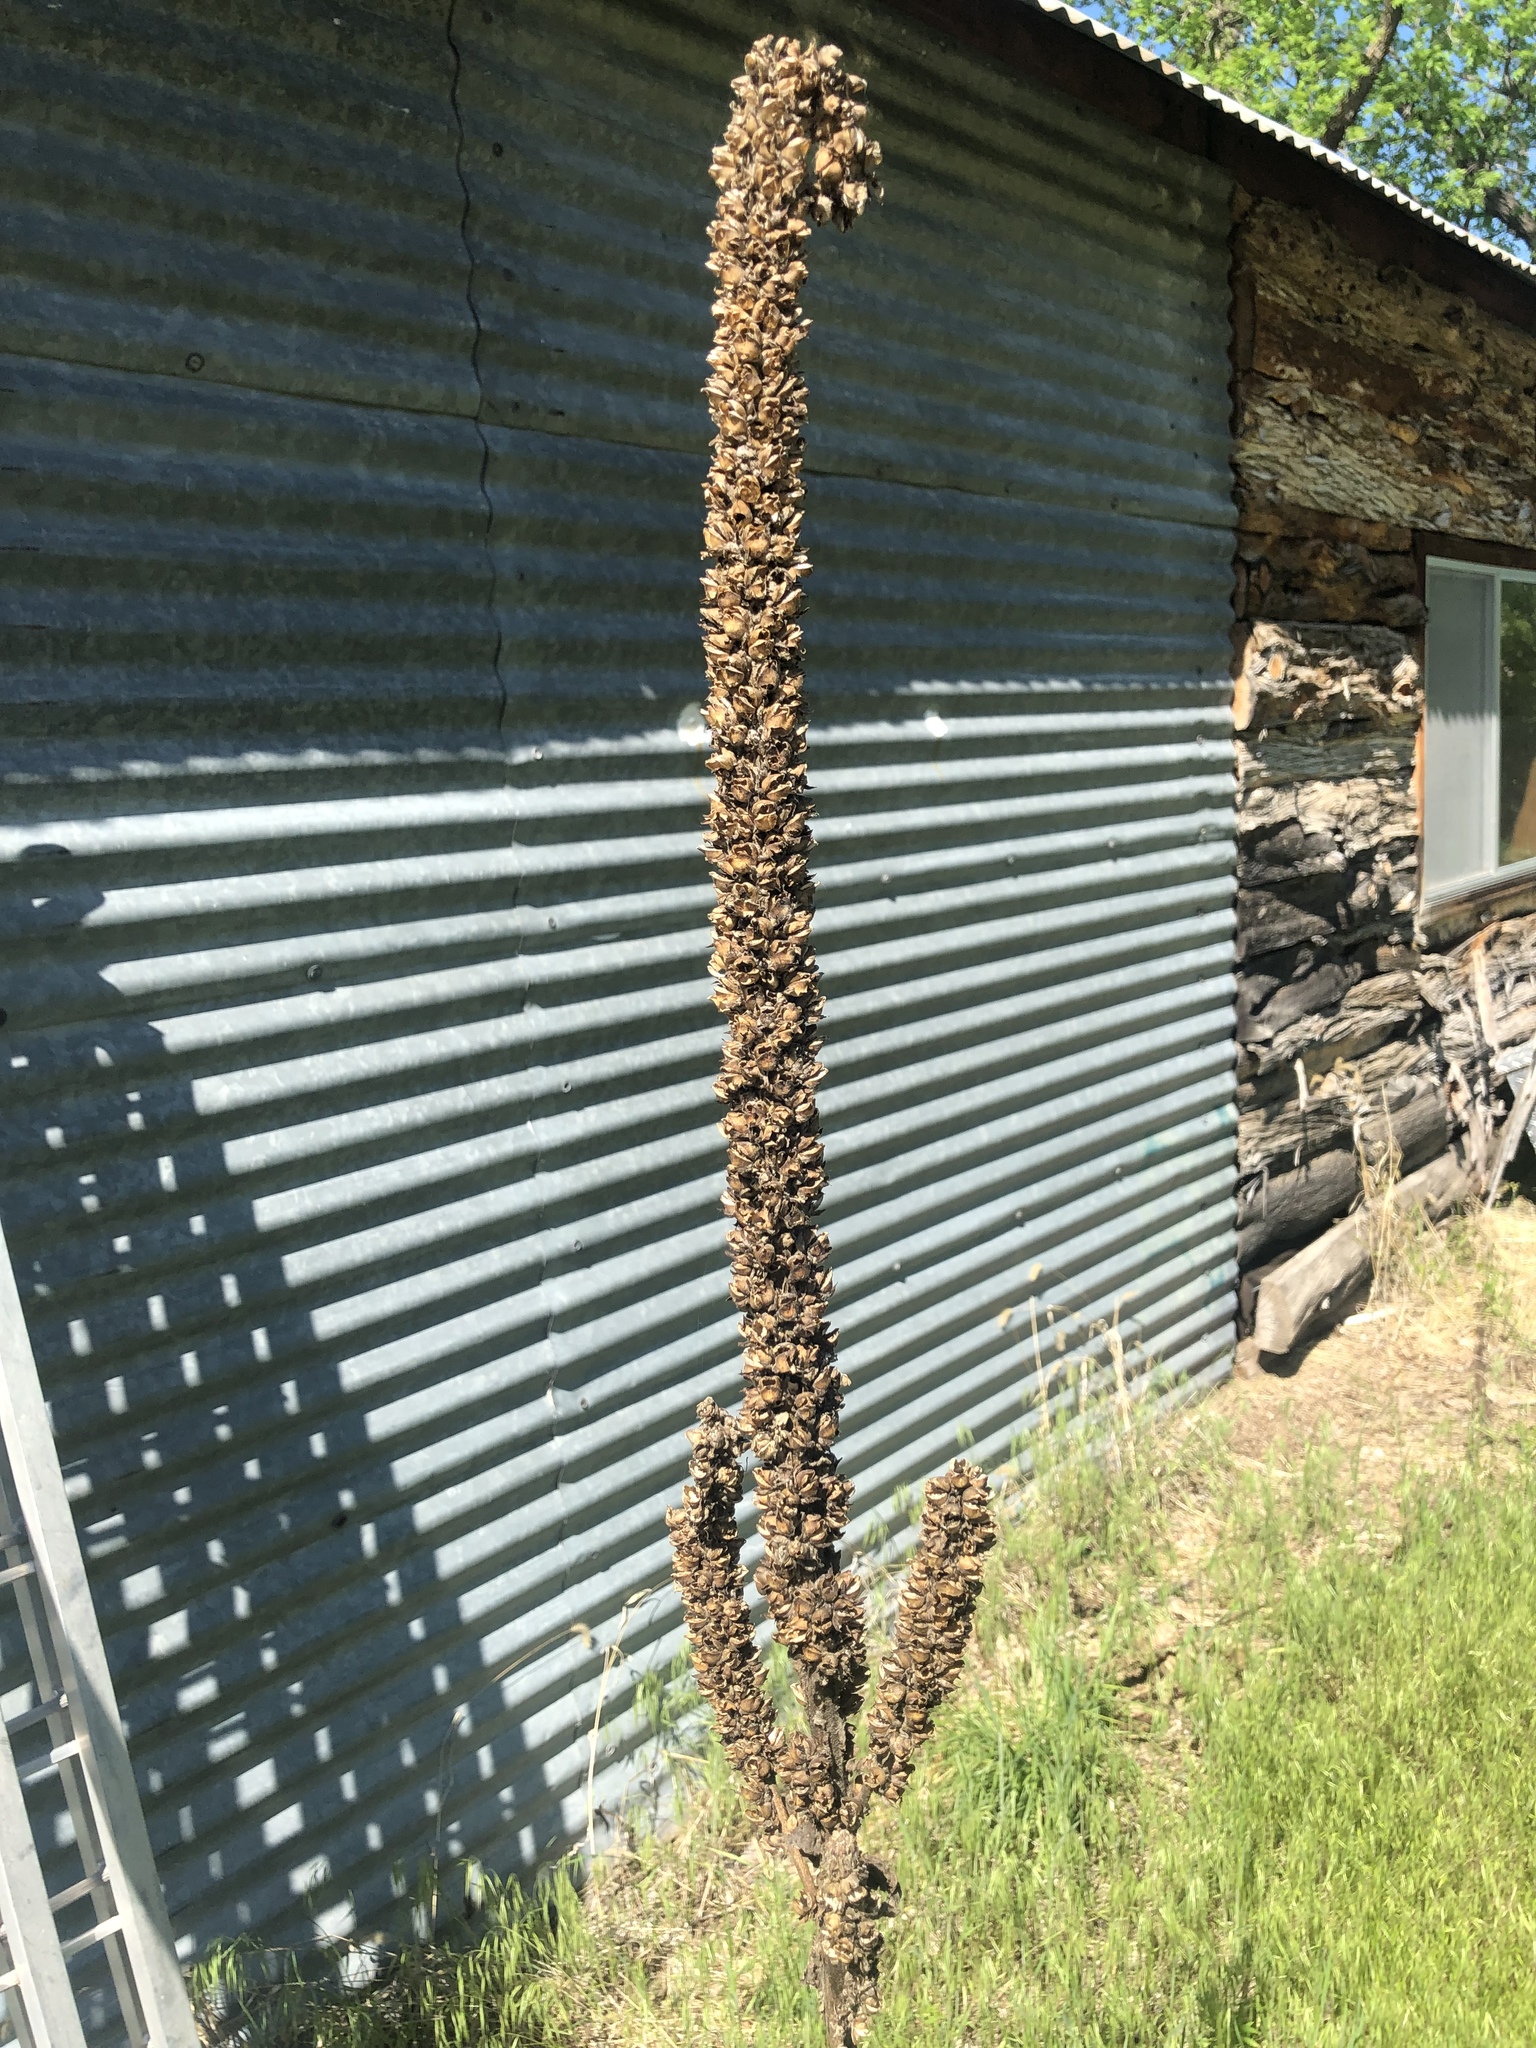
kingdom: Plantae
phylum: Tracheophyta
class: Magnoliopsida
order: Lamiales
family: Scrophulariaceae
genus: Verbascum
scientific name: Verbascum thapsus
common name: Common mullein
